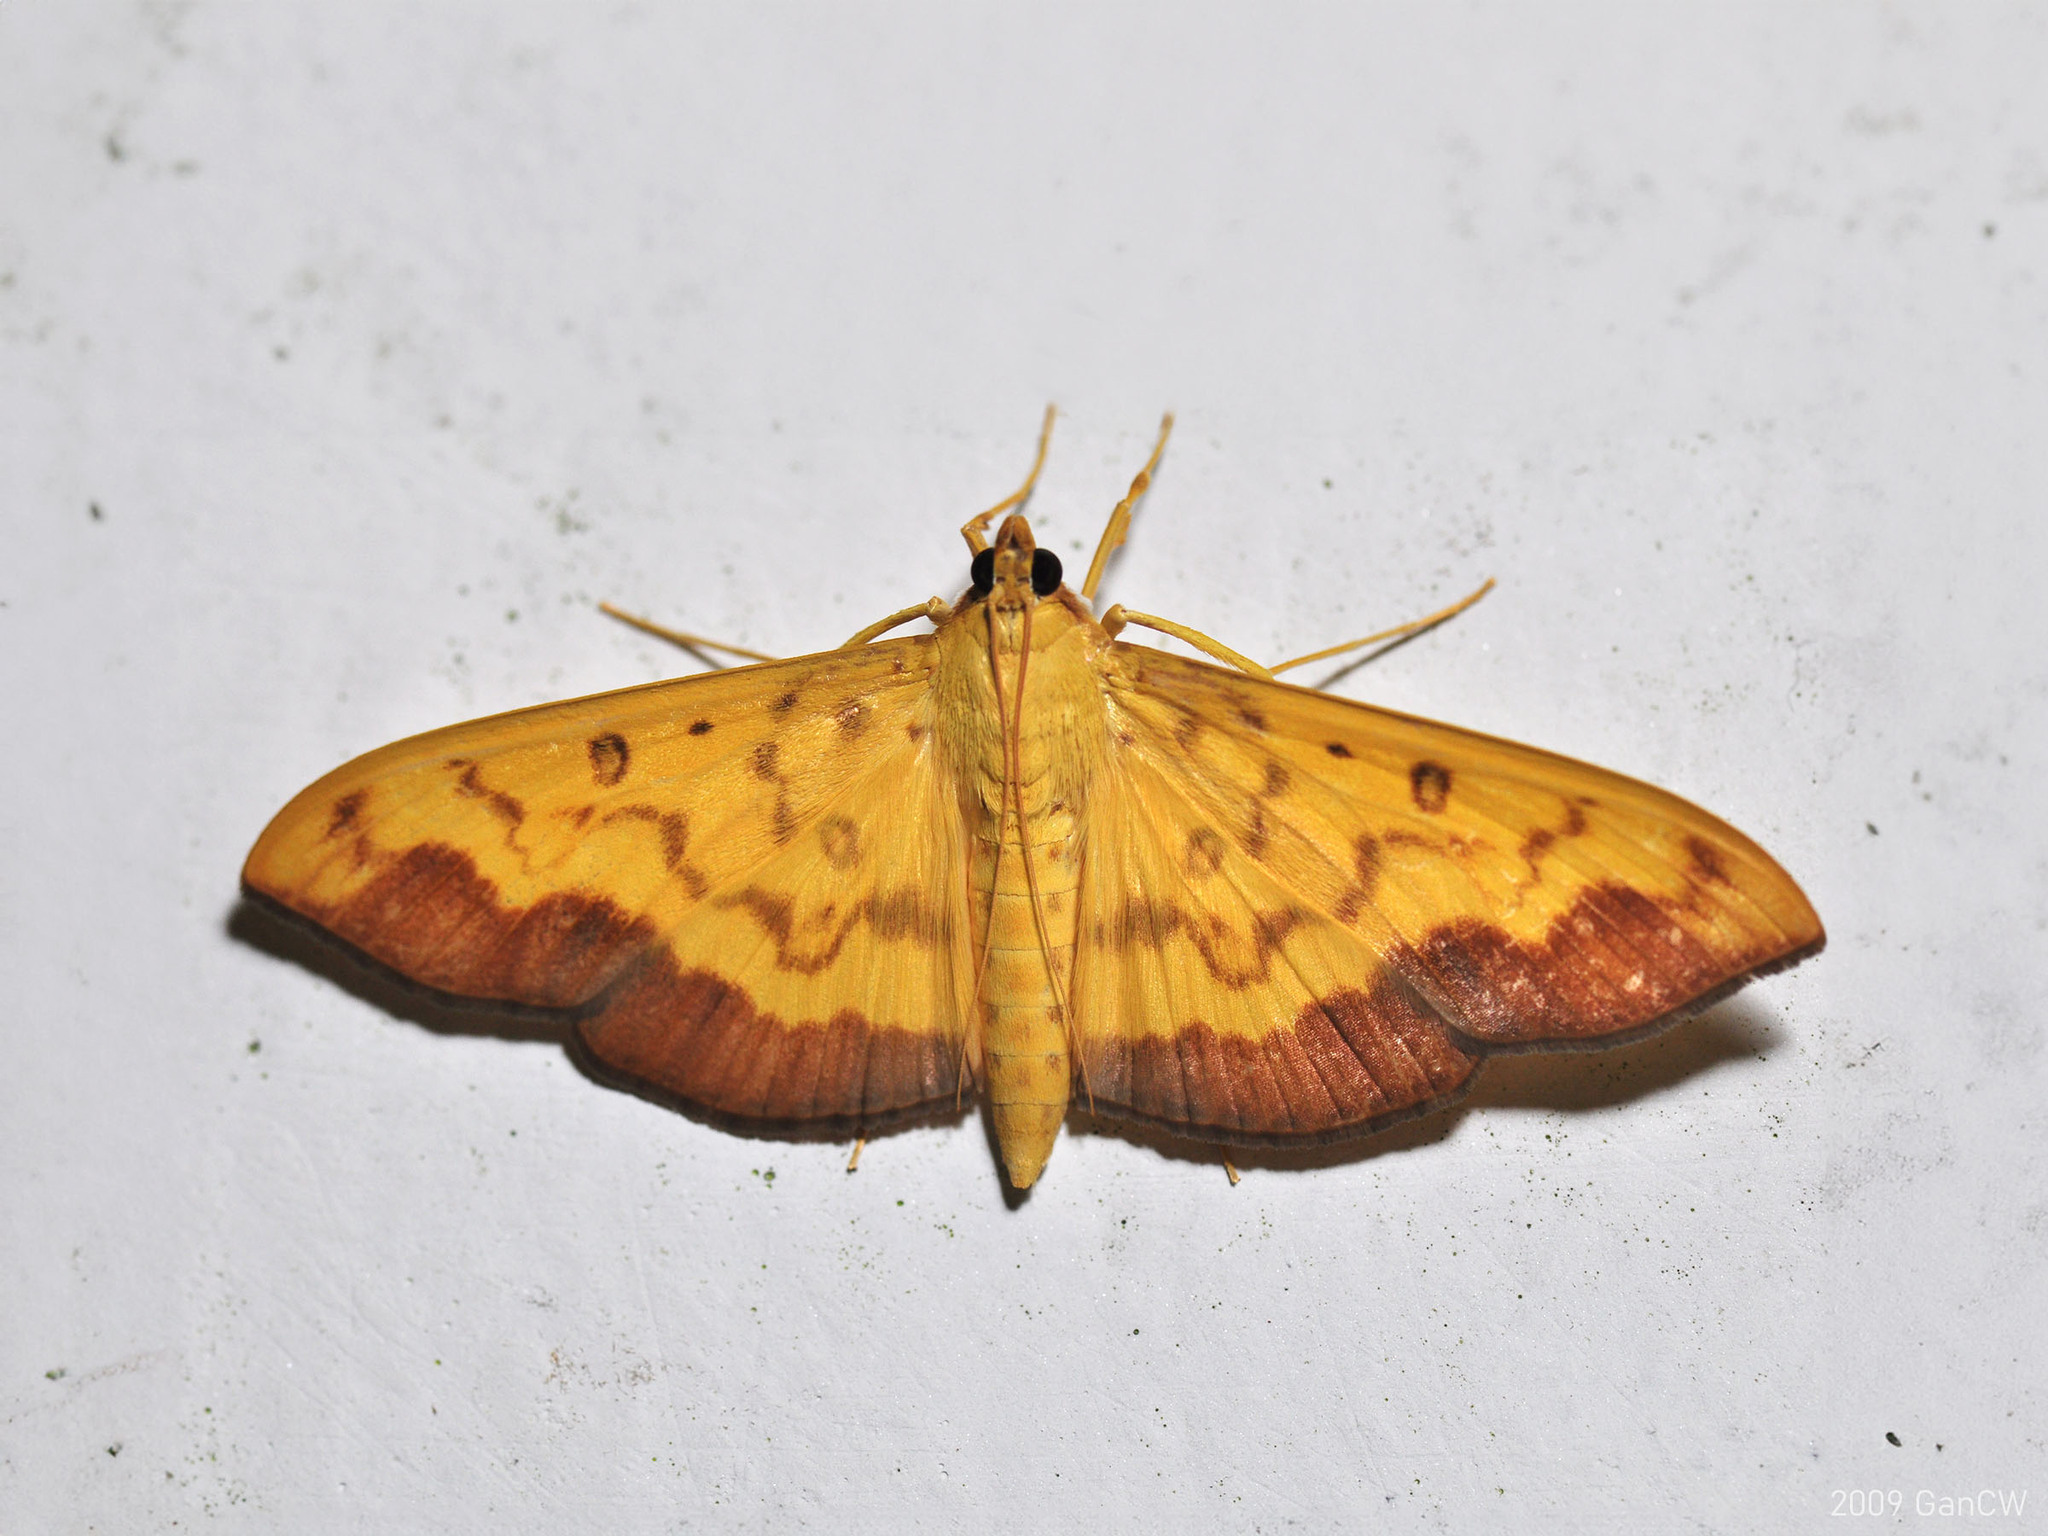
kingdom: Animalia
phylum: Arthropoda
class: Insecta
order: Lepidoptera
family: Crambidae
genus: Botyodes
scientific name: Botyodes asialis
